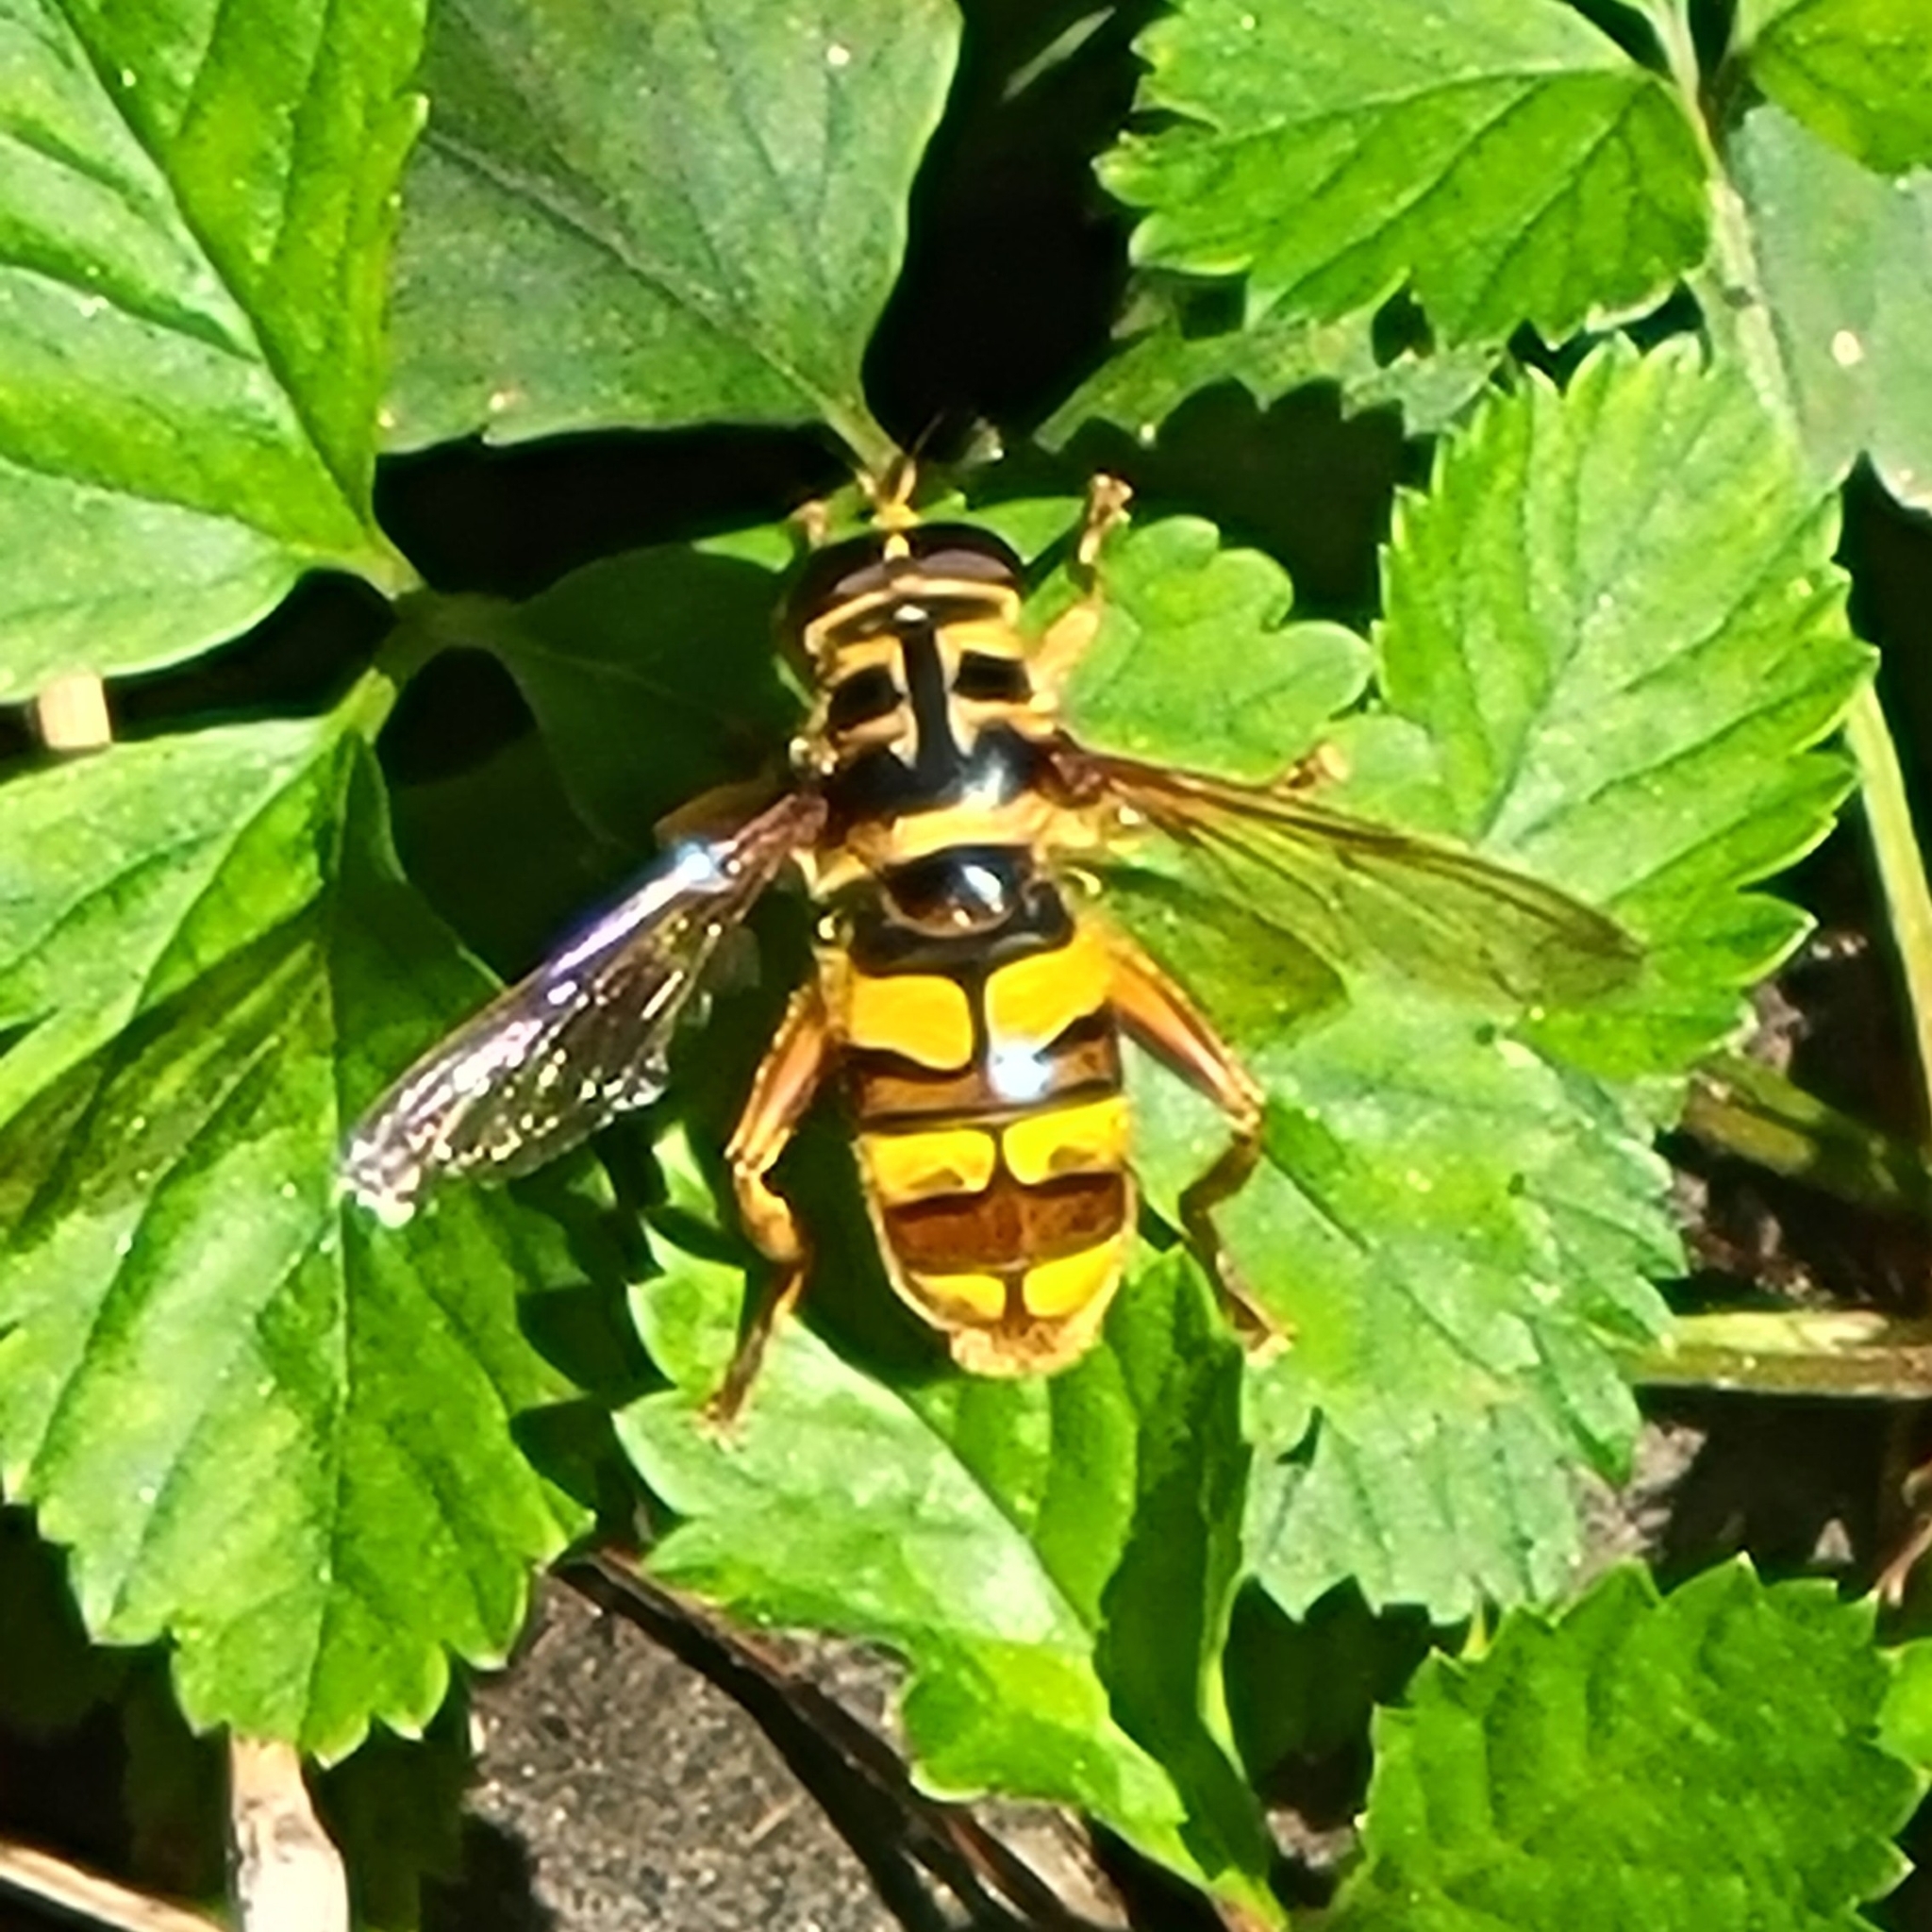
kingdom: Animalia
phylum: Arthropoda
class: Insecta
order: Diptera
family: Syrphidae
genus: Milesia
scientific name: Milesia virginiensis
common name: Virginia giant
